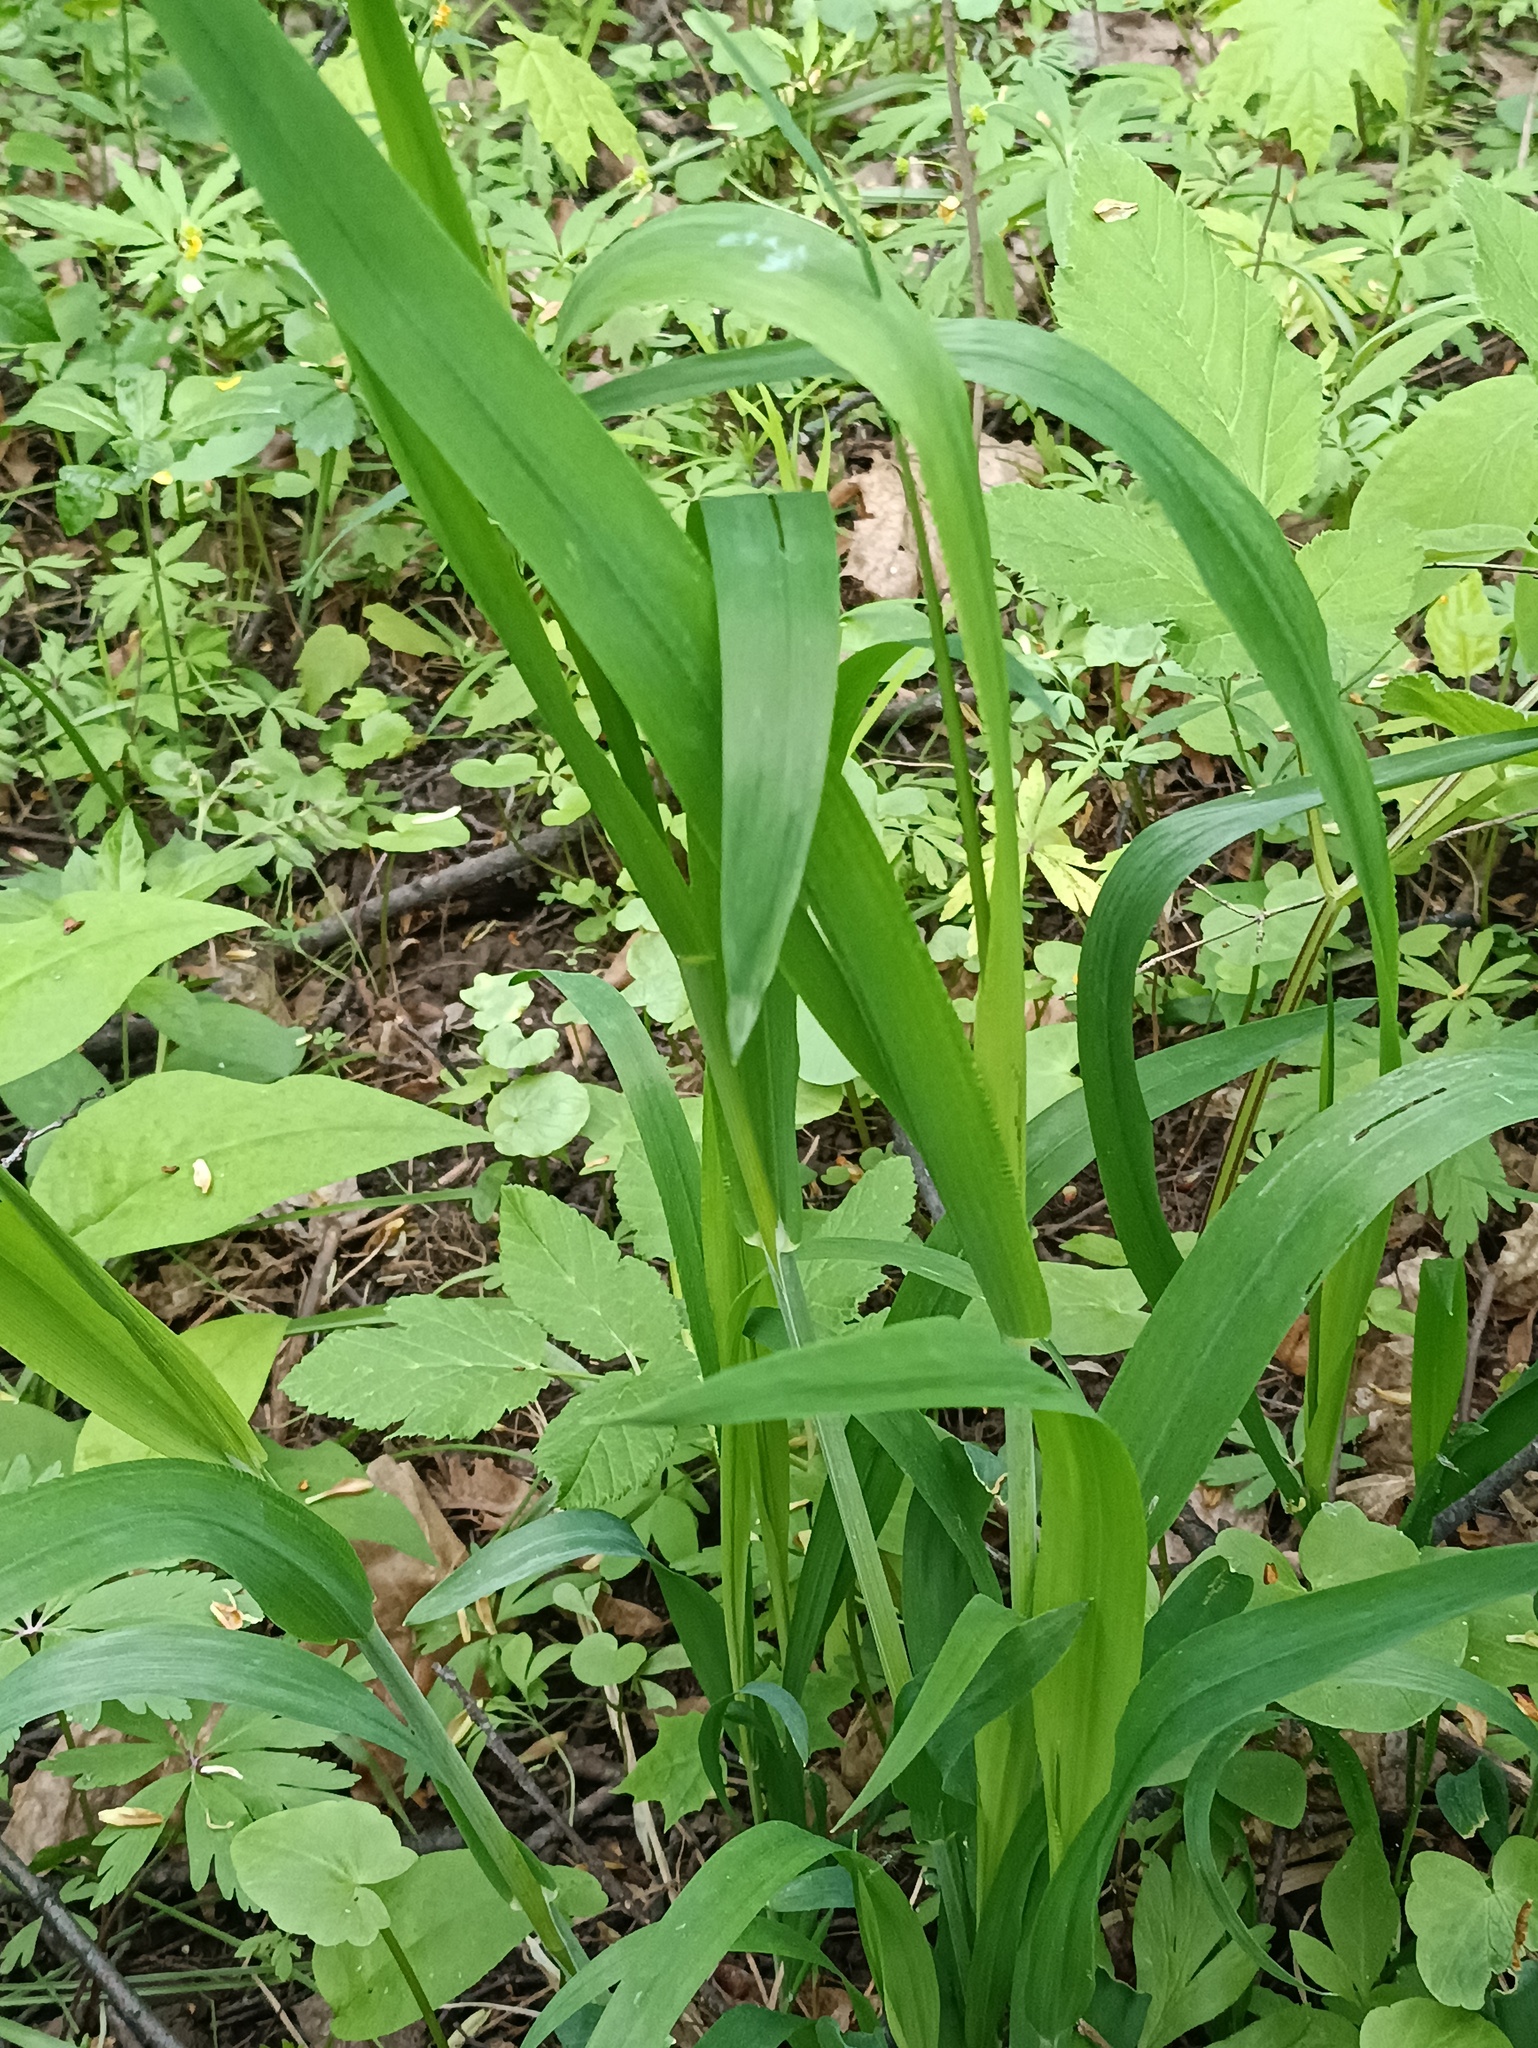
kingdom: Plantae
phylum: Tracheophyta
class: Liliopsida
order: Poales
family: Poaceae
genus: Milium
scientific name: Milium effusum
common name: Wood millet
